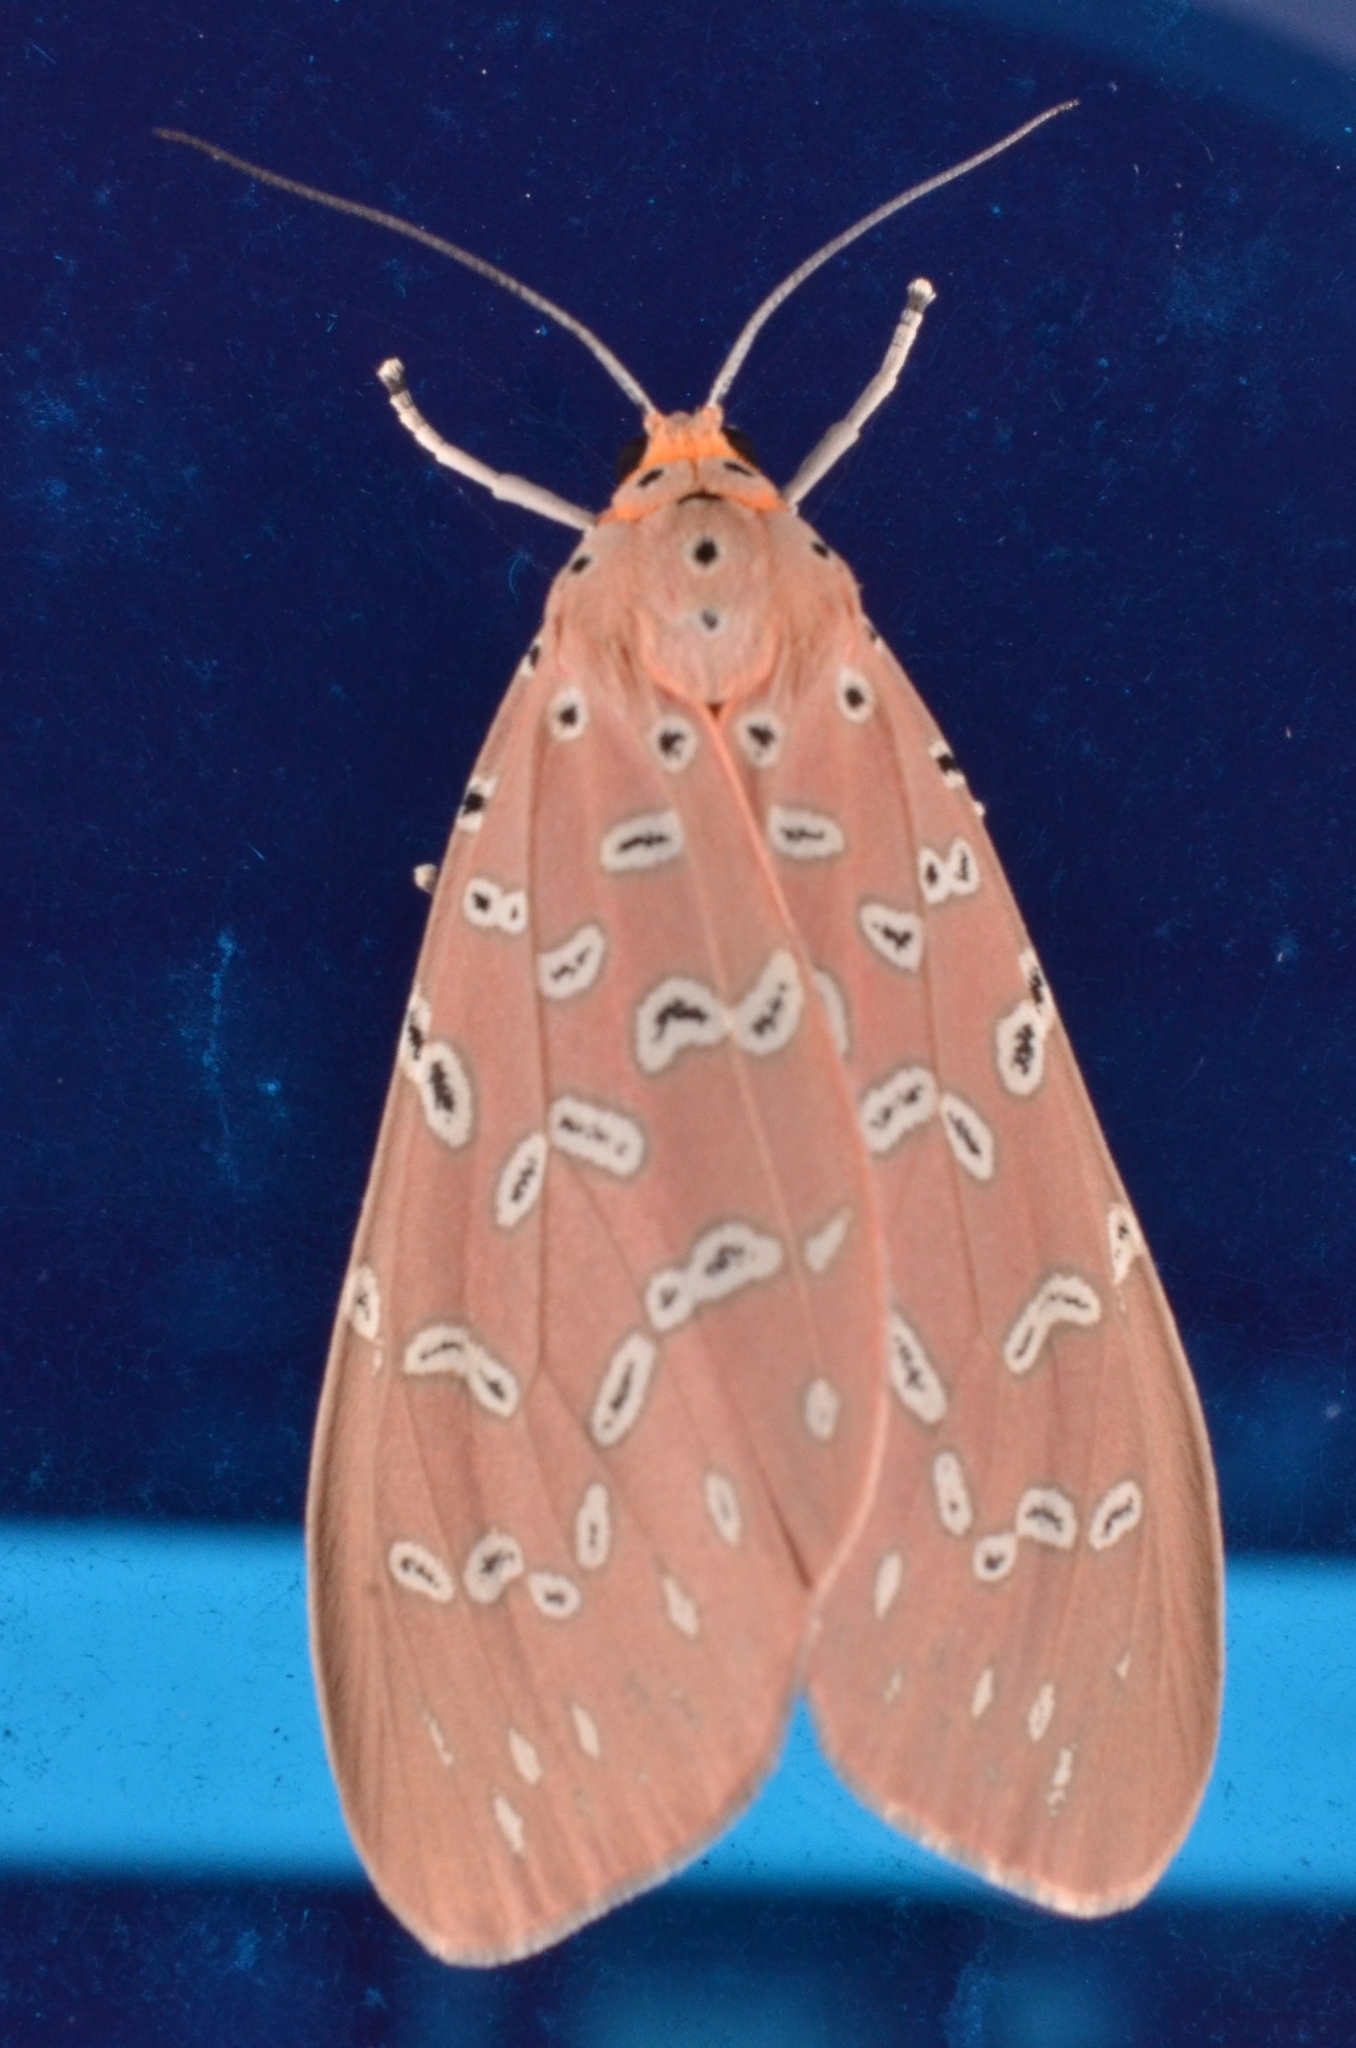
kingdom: Animalia
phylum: Arthropoda
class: Insecta
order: Lepidoptera
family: Erebidae
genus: Mangina
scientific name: Mangina argus
